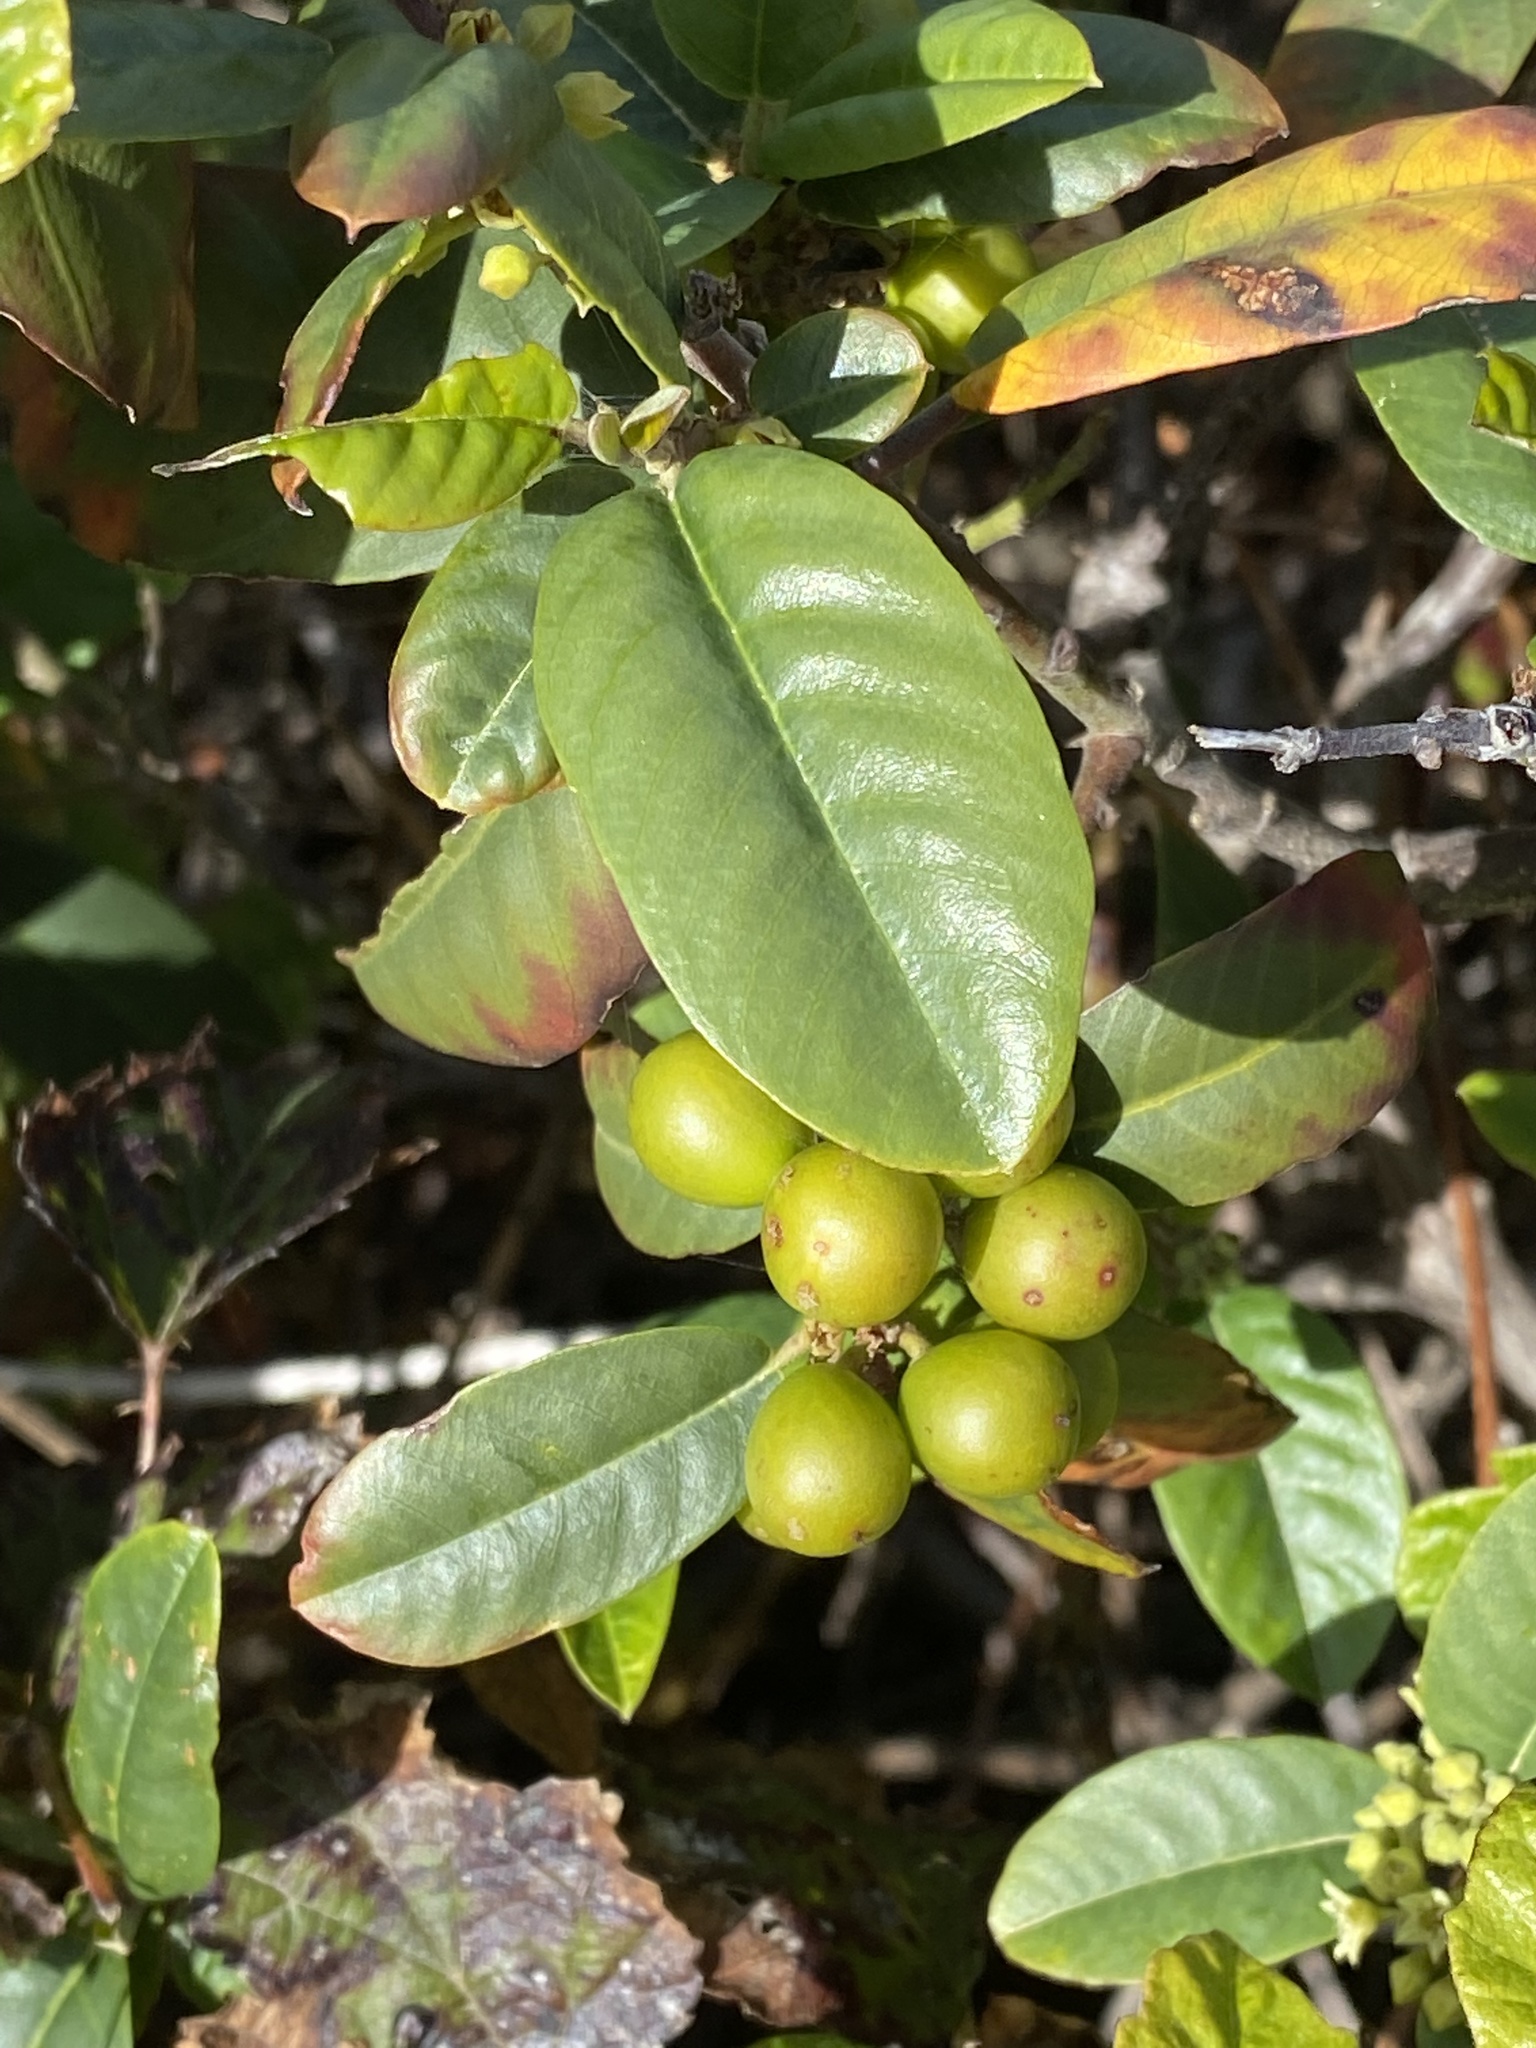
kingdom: Plantae
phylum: Tracheophyta
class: Magnoliopsida
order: Rosales
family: Rhamnaceae
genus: Frangula
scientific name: Frangula californica
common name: California buckthorn
